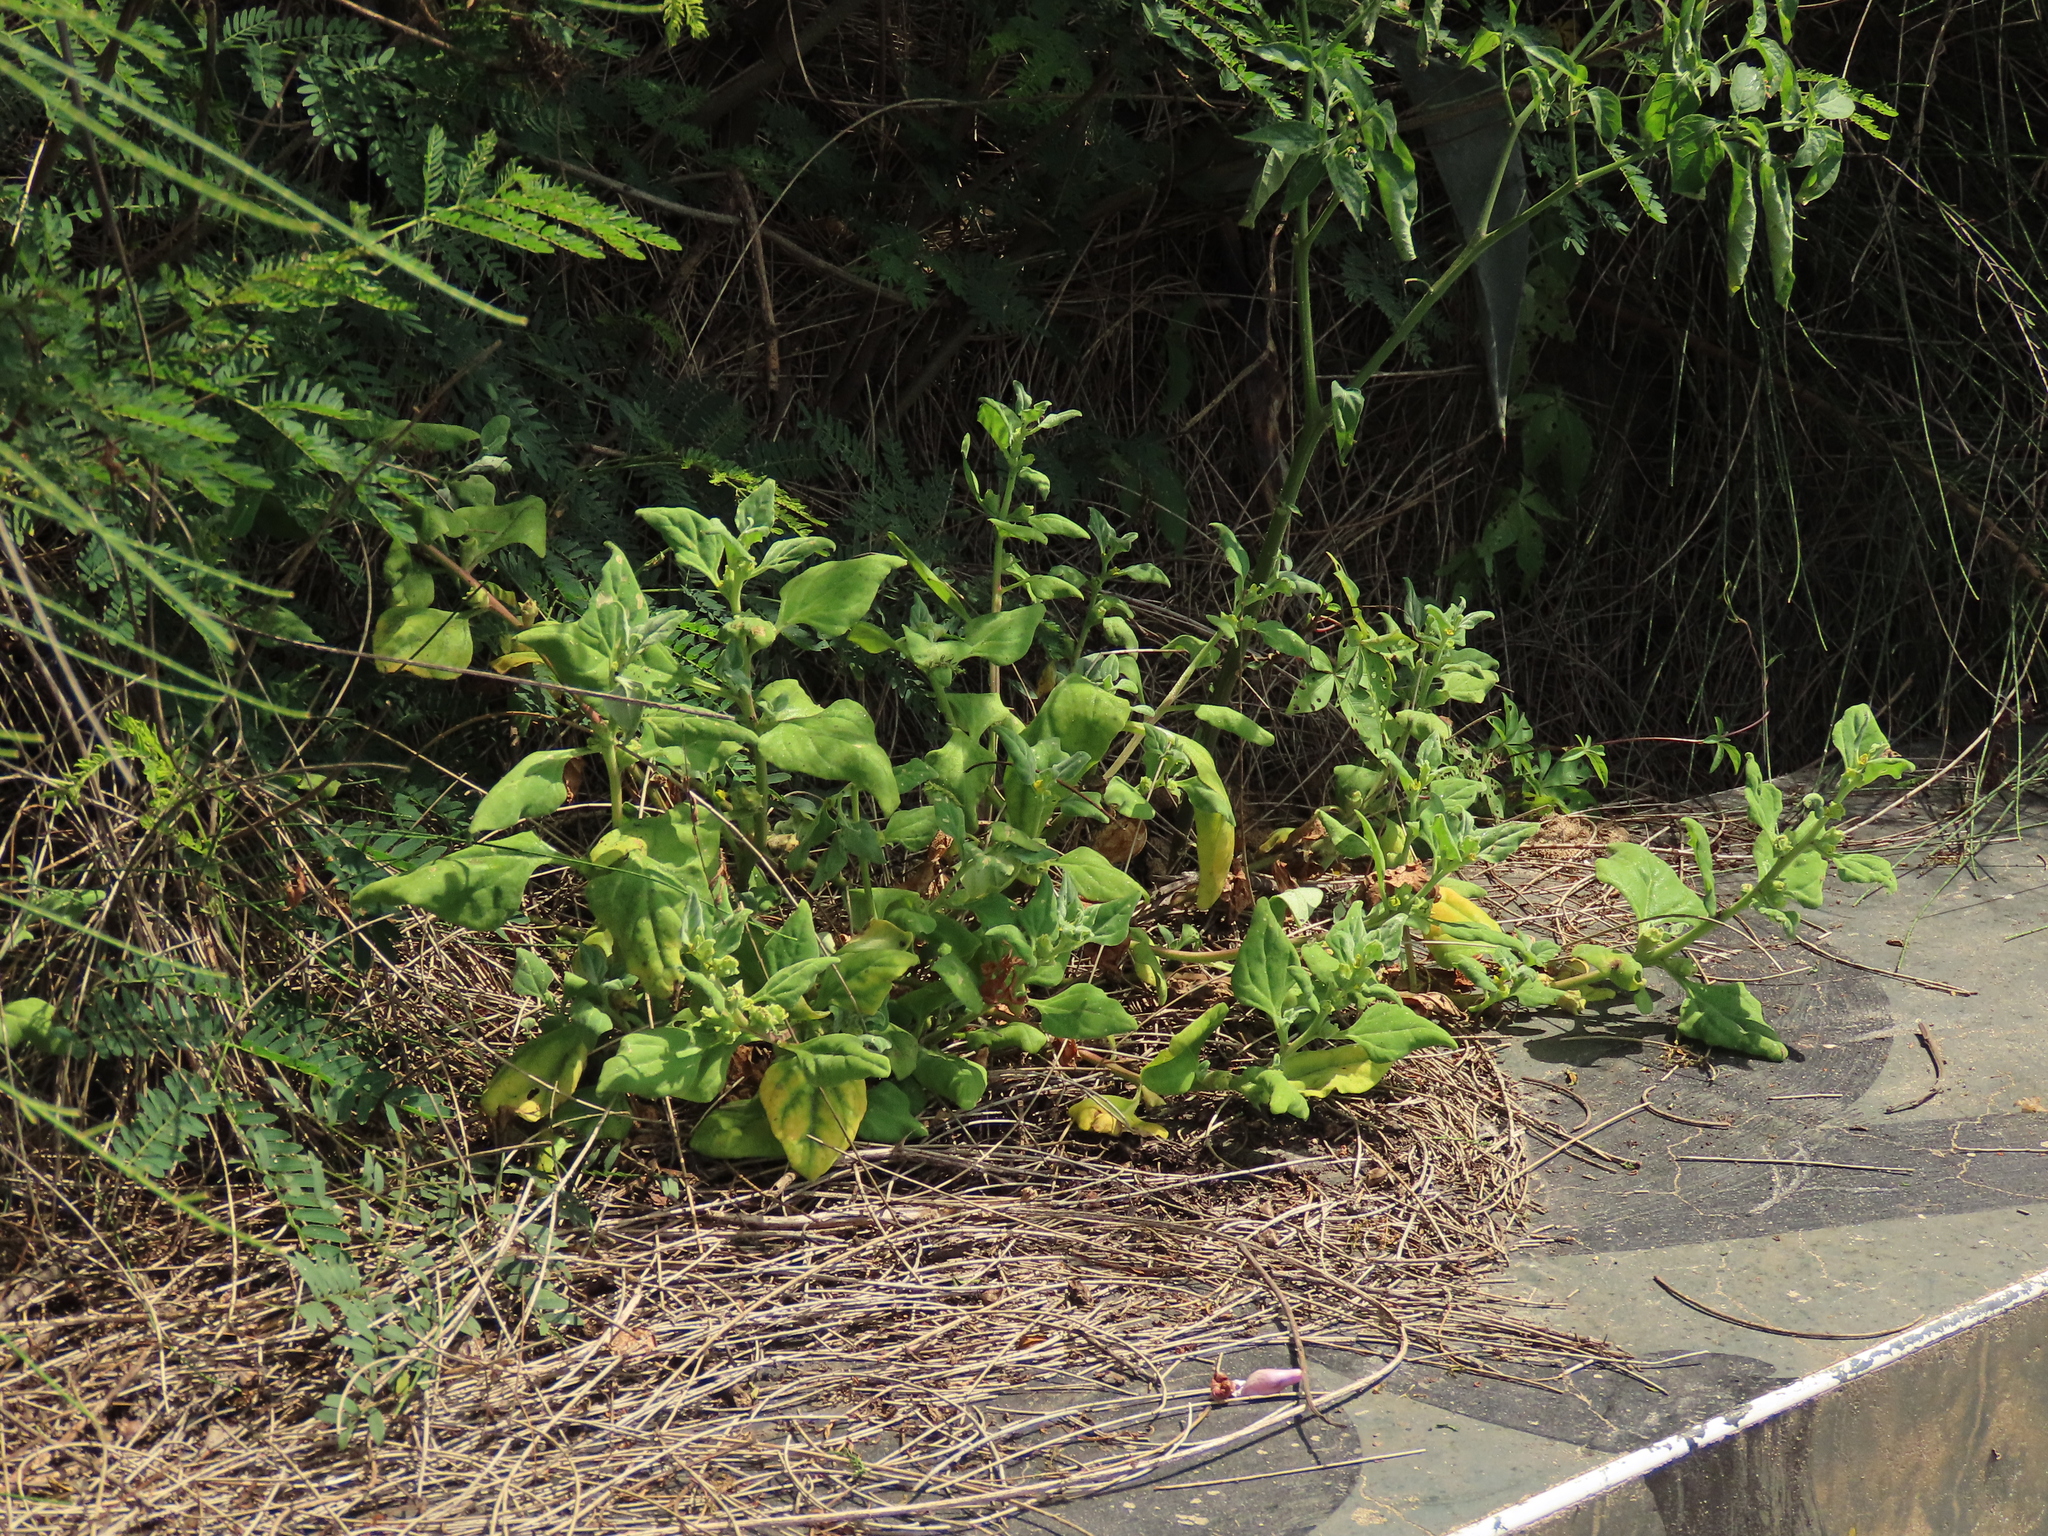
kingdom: Plantae
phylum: Tracheophyta
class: Magnoliopsida
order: Caryophyllales
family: Aizoaceae
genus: Tetragonia
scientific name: Tetragonia tetragonoides
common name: New zealand-spinach
